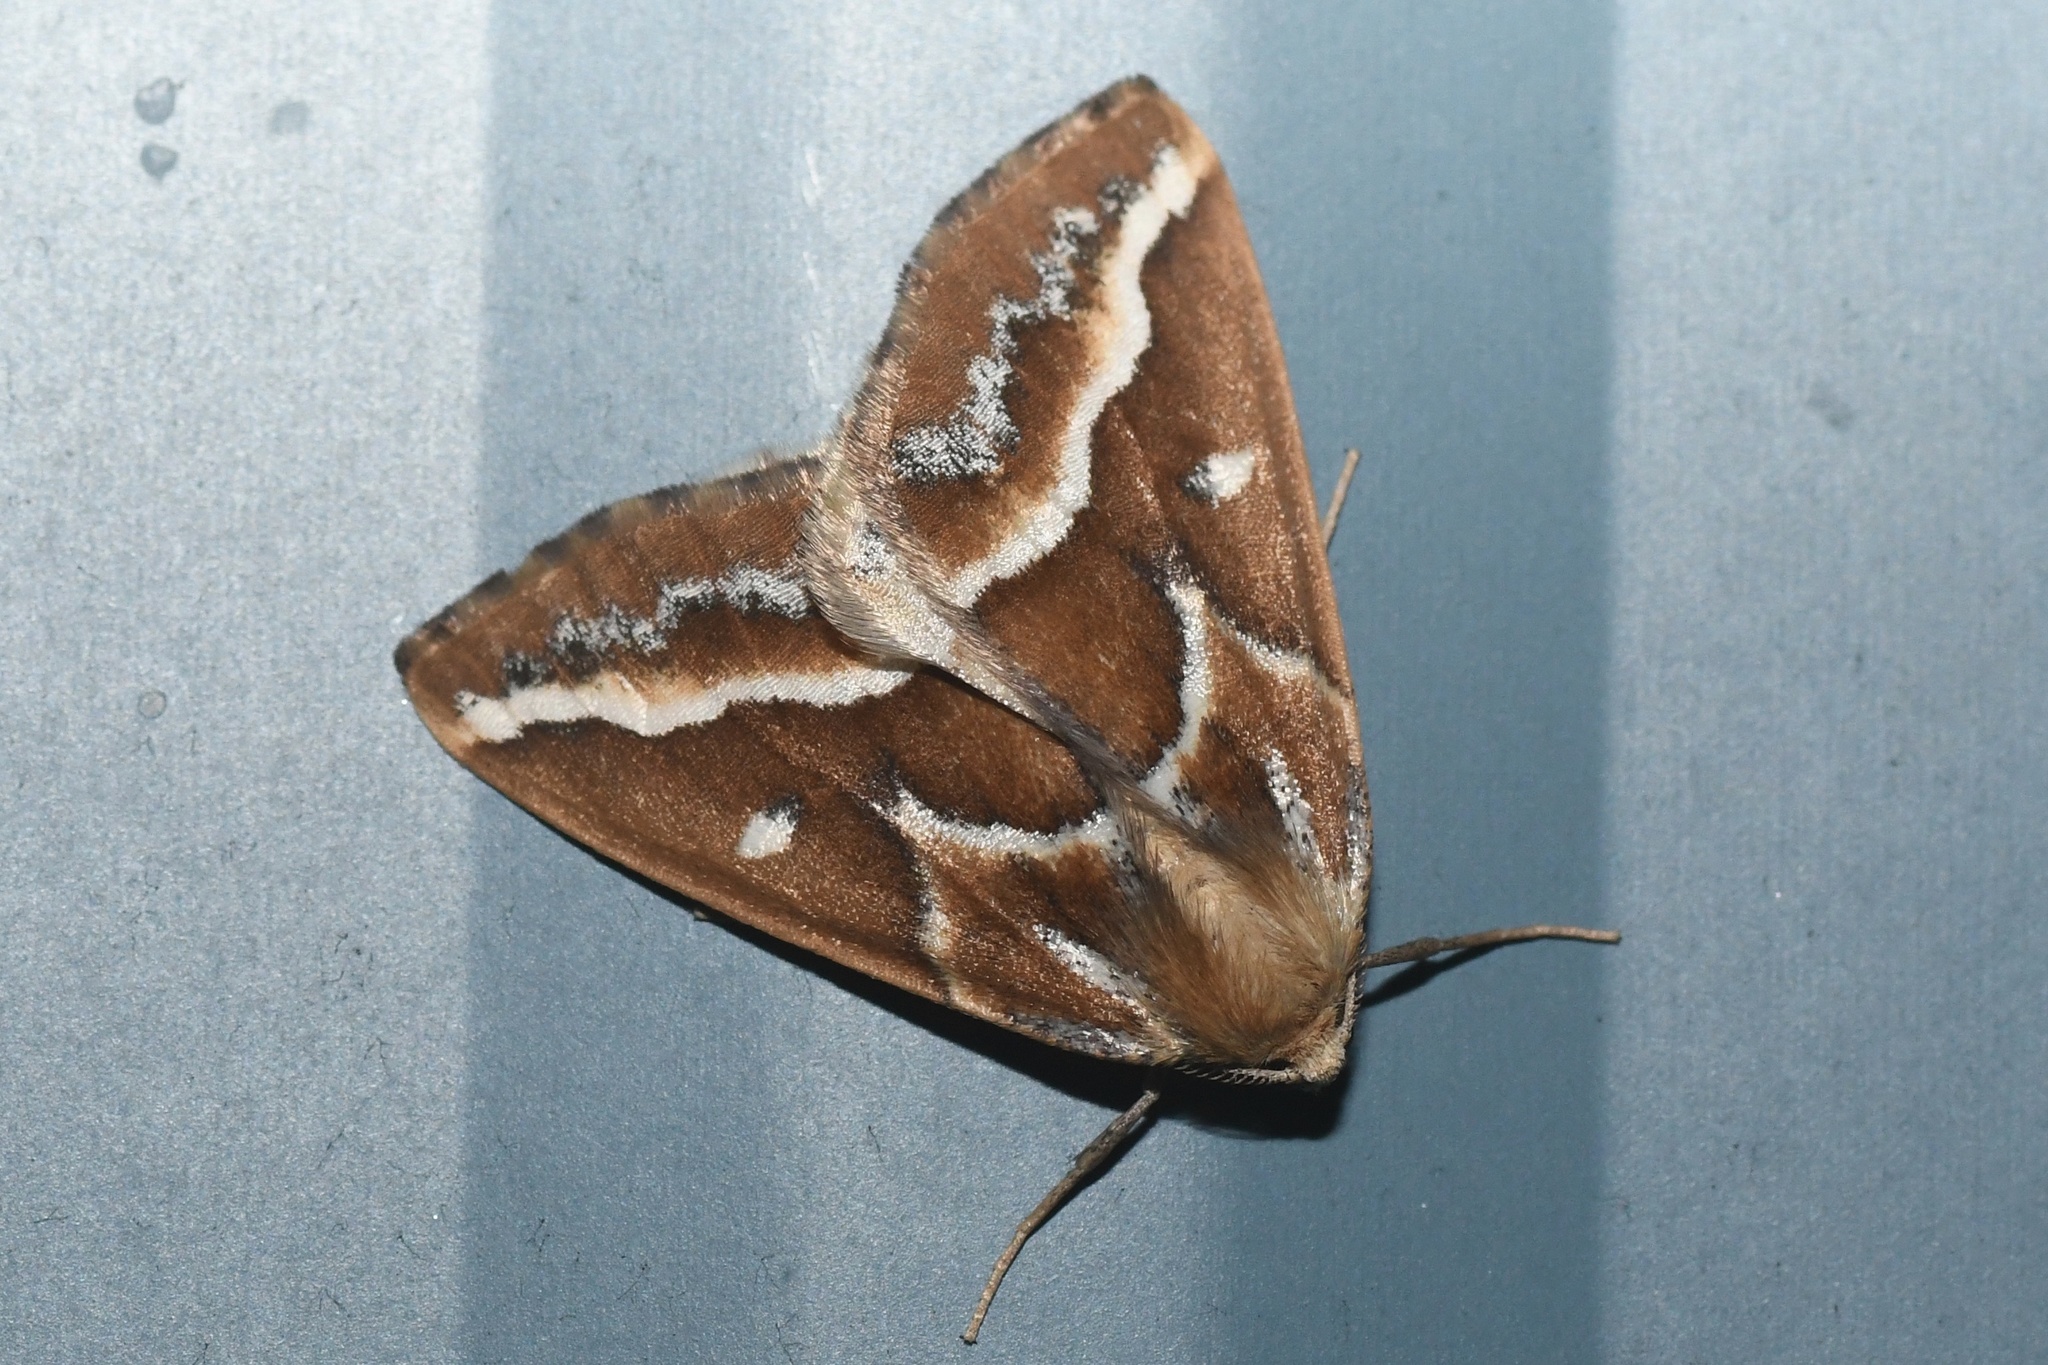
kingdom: Animalia
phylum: Arthropoda
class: Insecta
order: Lepidoptera
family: Geometridae
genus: Caripeta
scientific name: Caripeta angustiorata
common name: Brown pine looper
